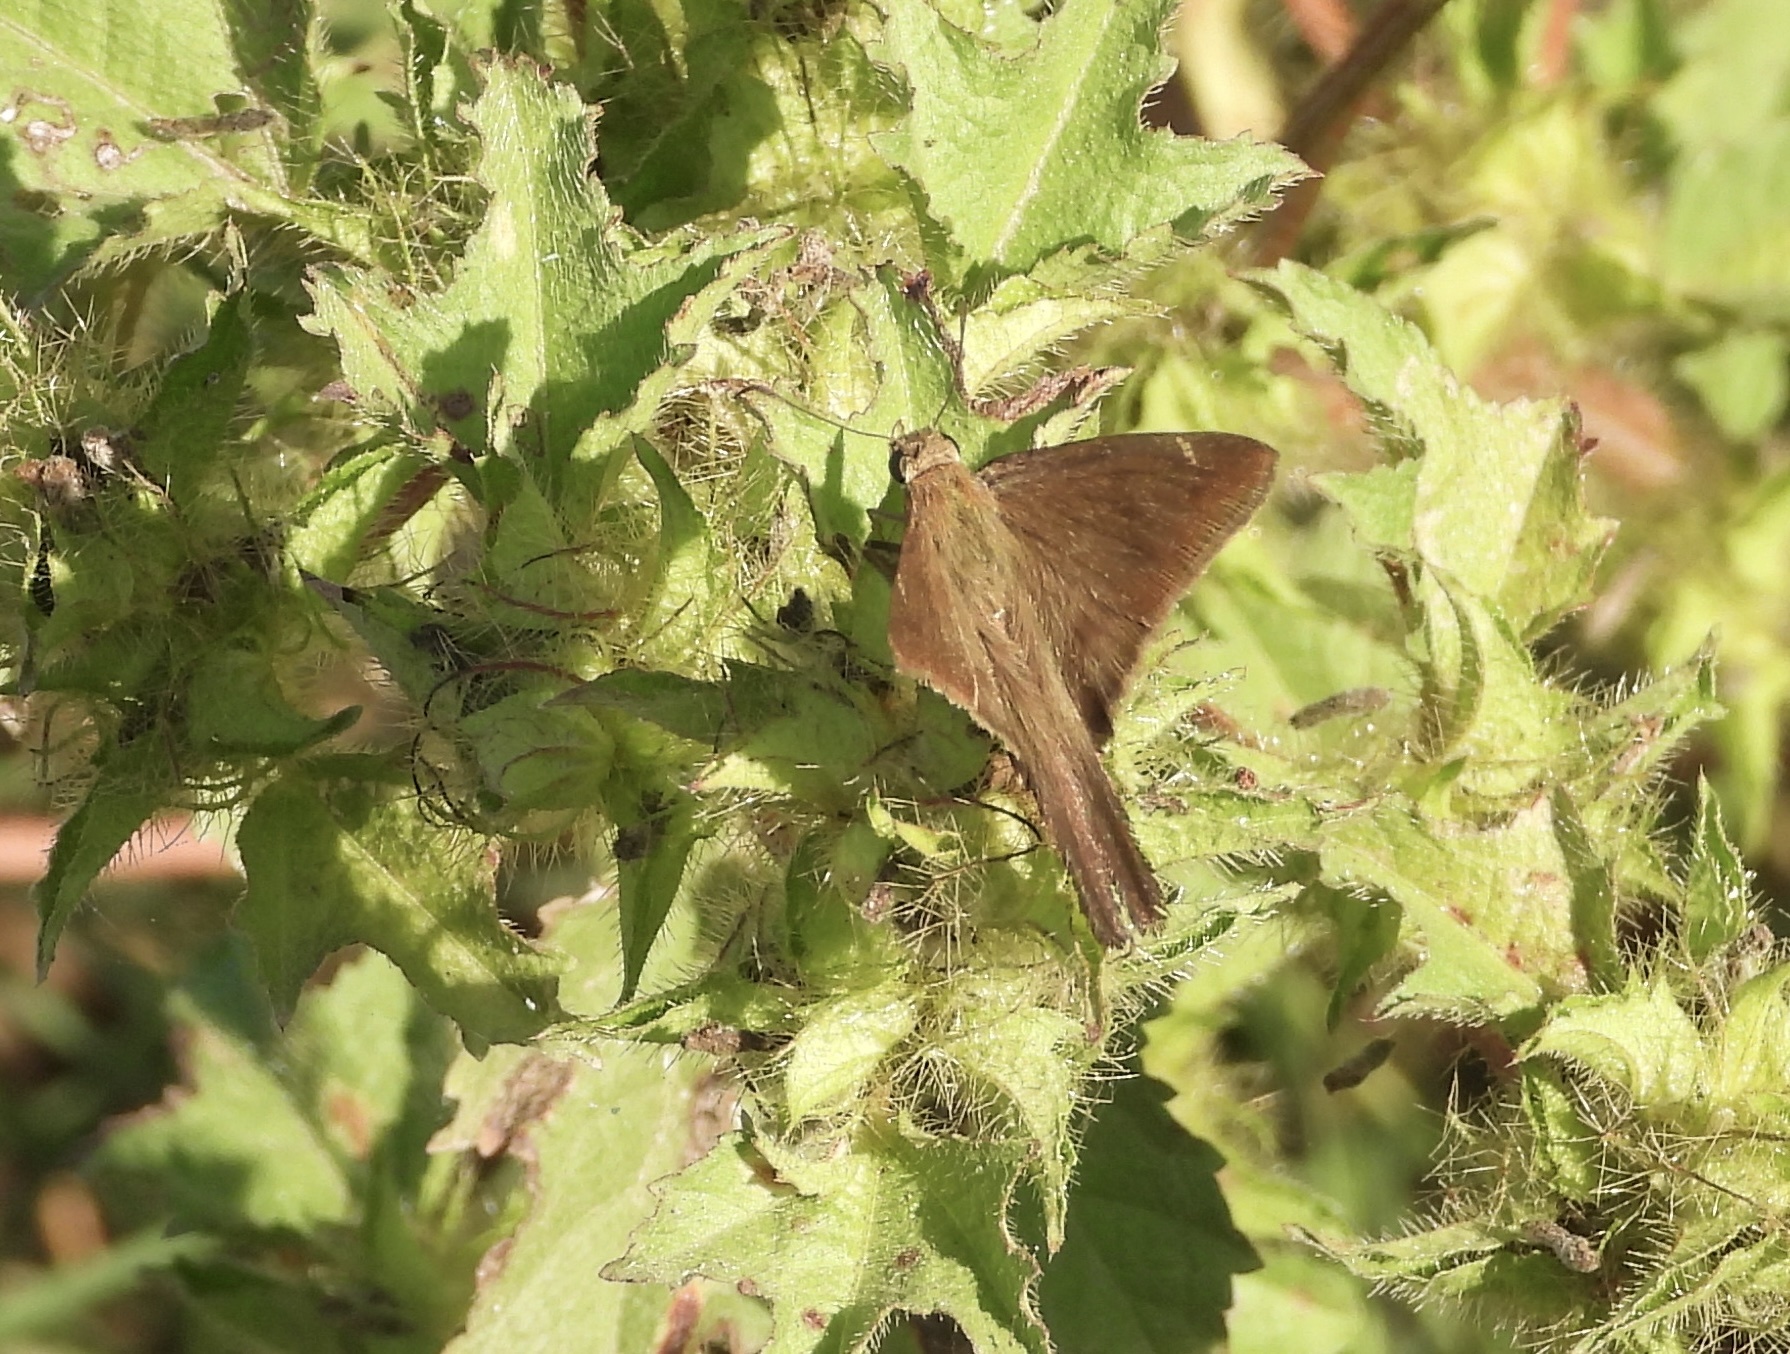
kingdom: Animalia
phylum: Arthropoda
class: Insecta
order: Lepidoptera
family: Hesperiidae
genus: Urbanus
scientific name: Urbanus procne
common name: Brown longtail
